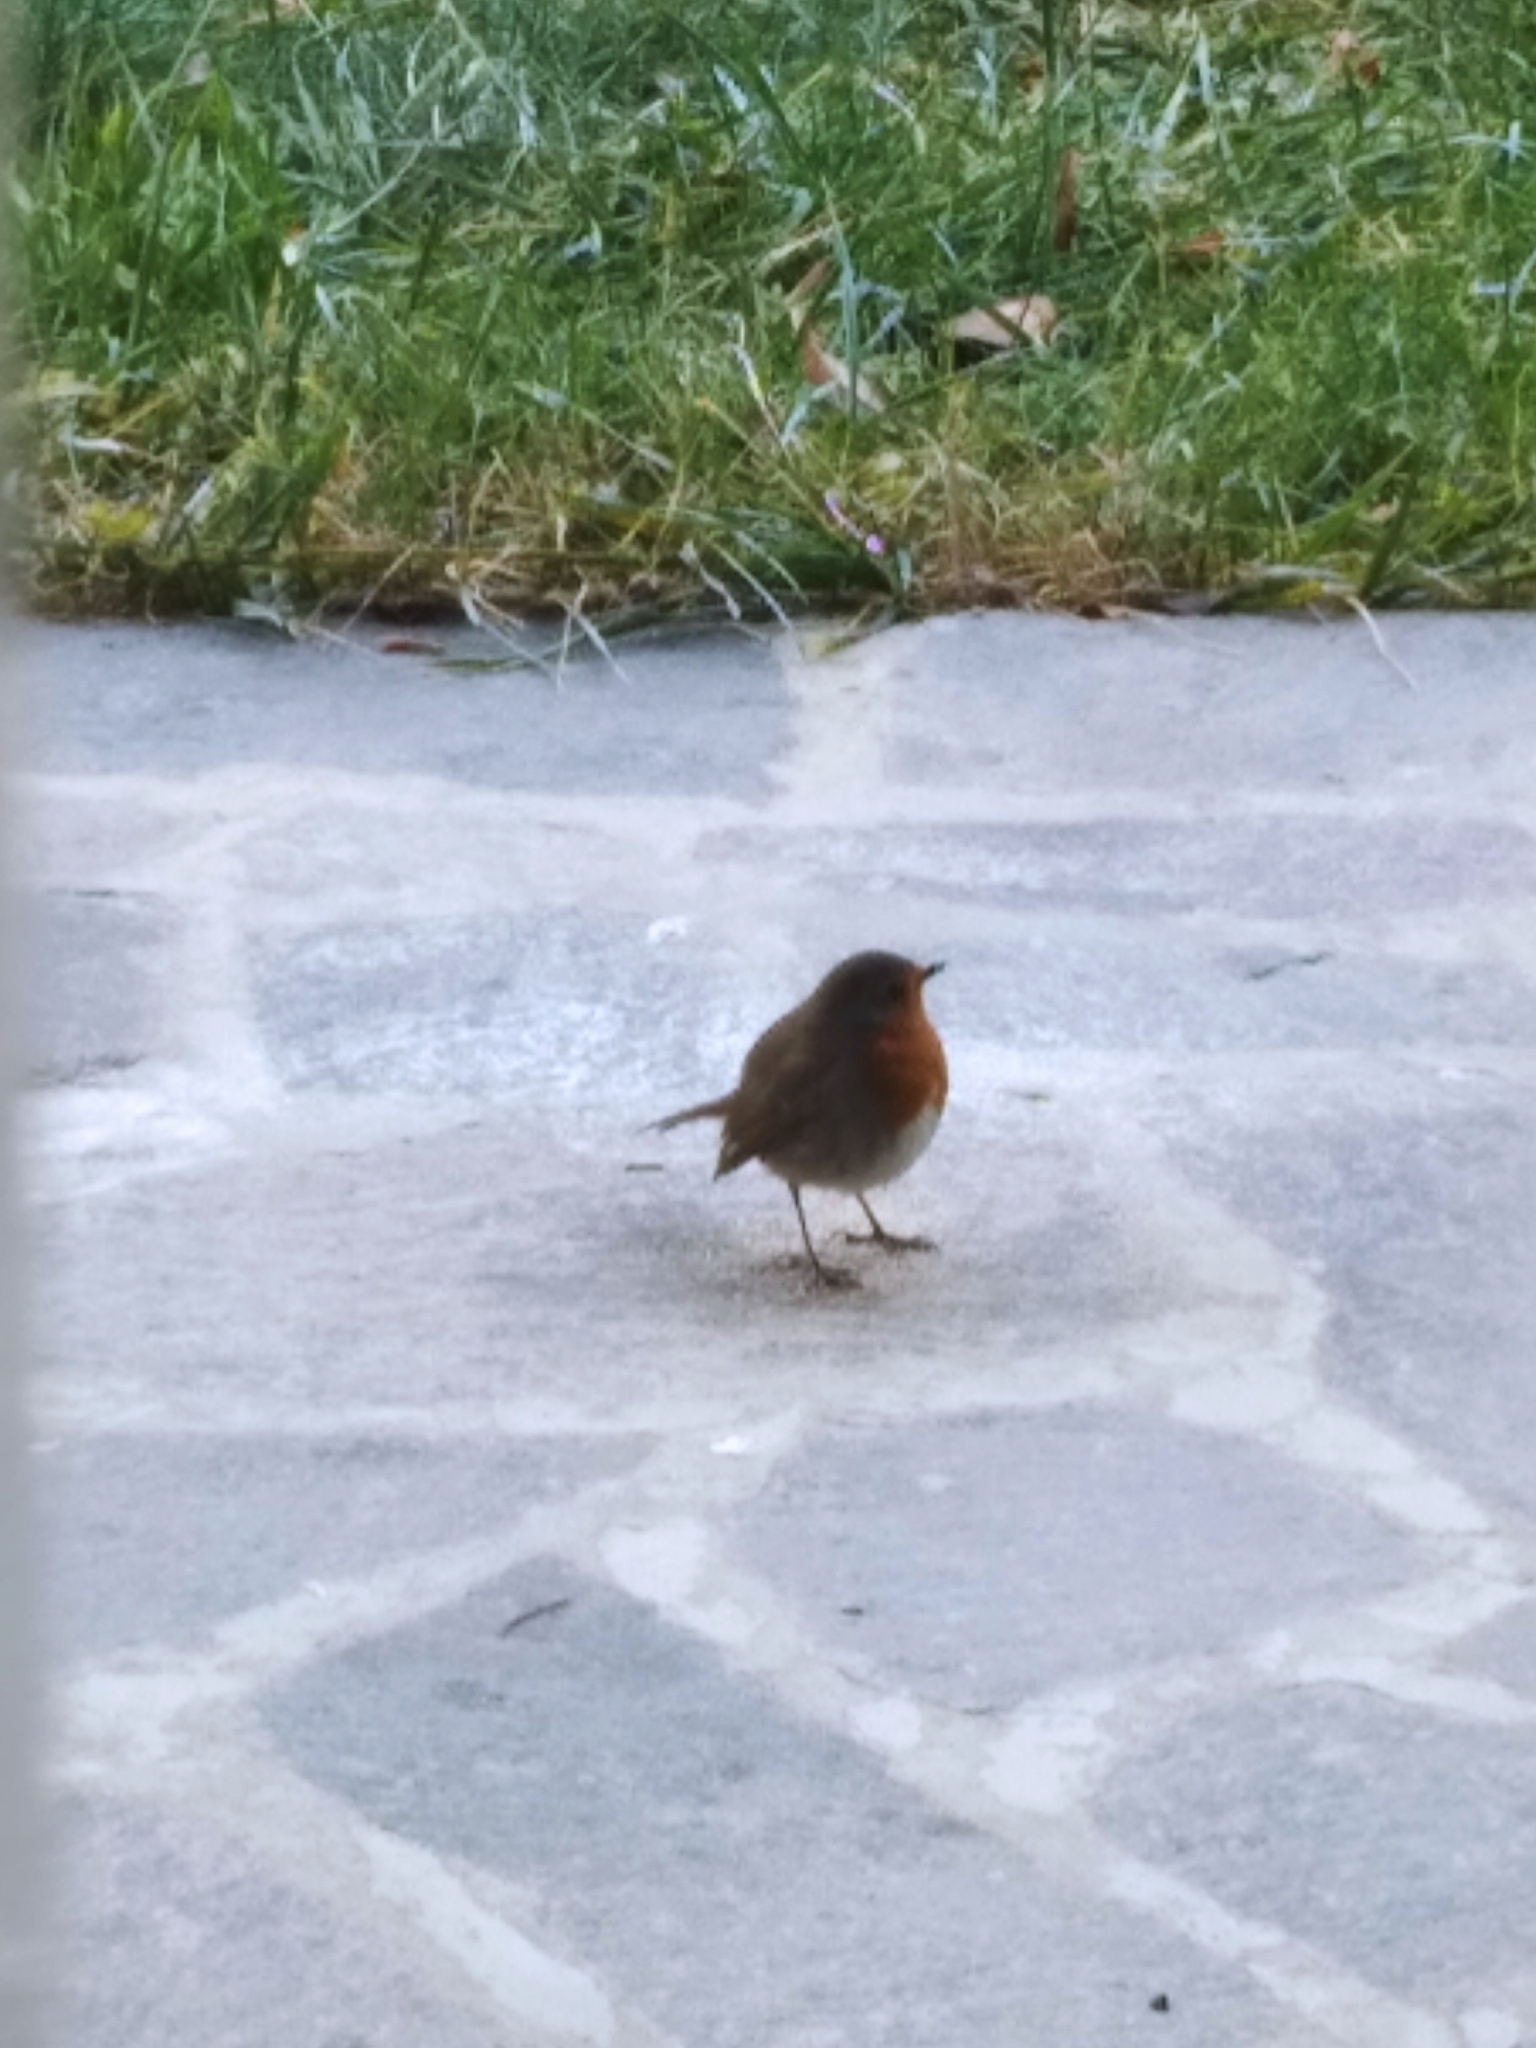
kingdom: Animalia
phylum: Chordata
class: Aves
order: Passeriformes
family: Muscicapidae
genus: Erithacus
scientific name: Erithacus rubecula
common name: European robin
